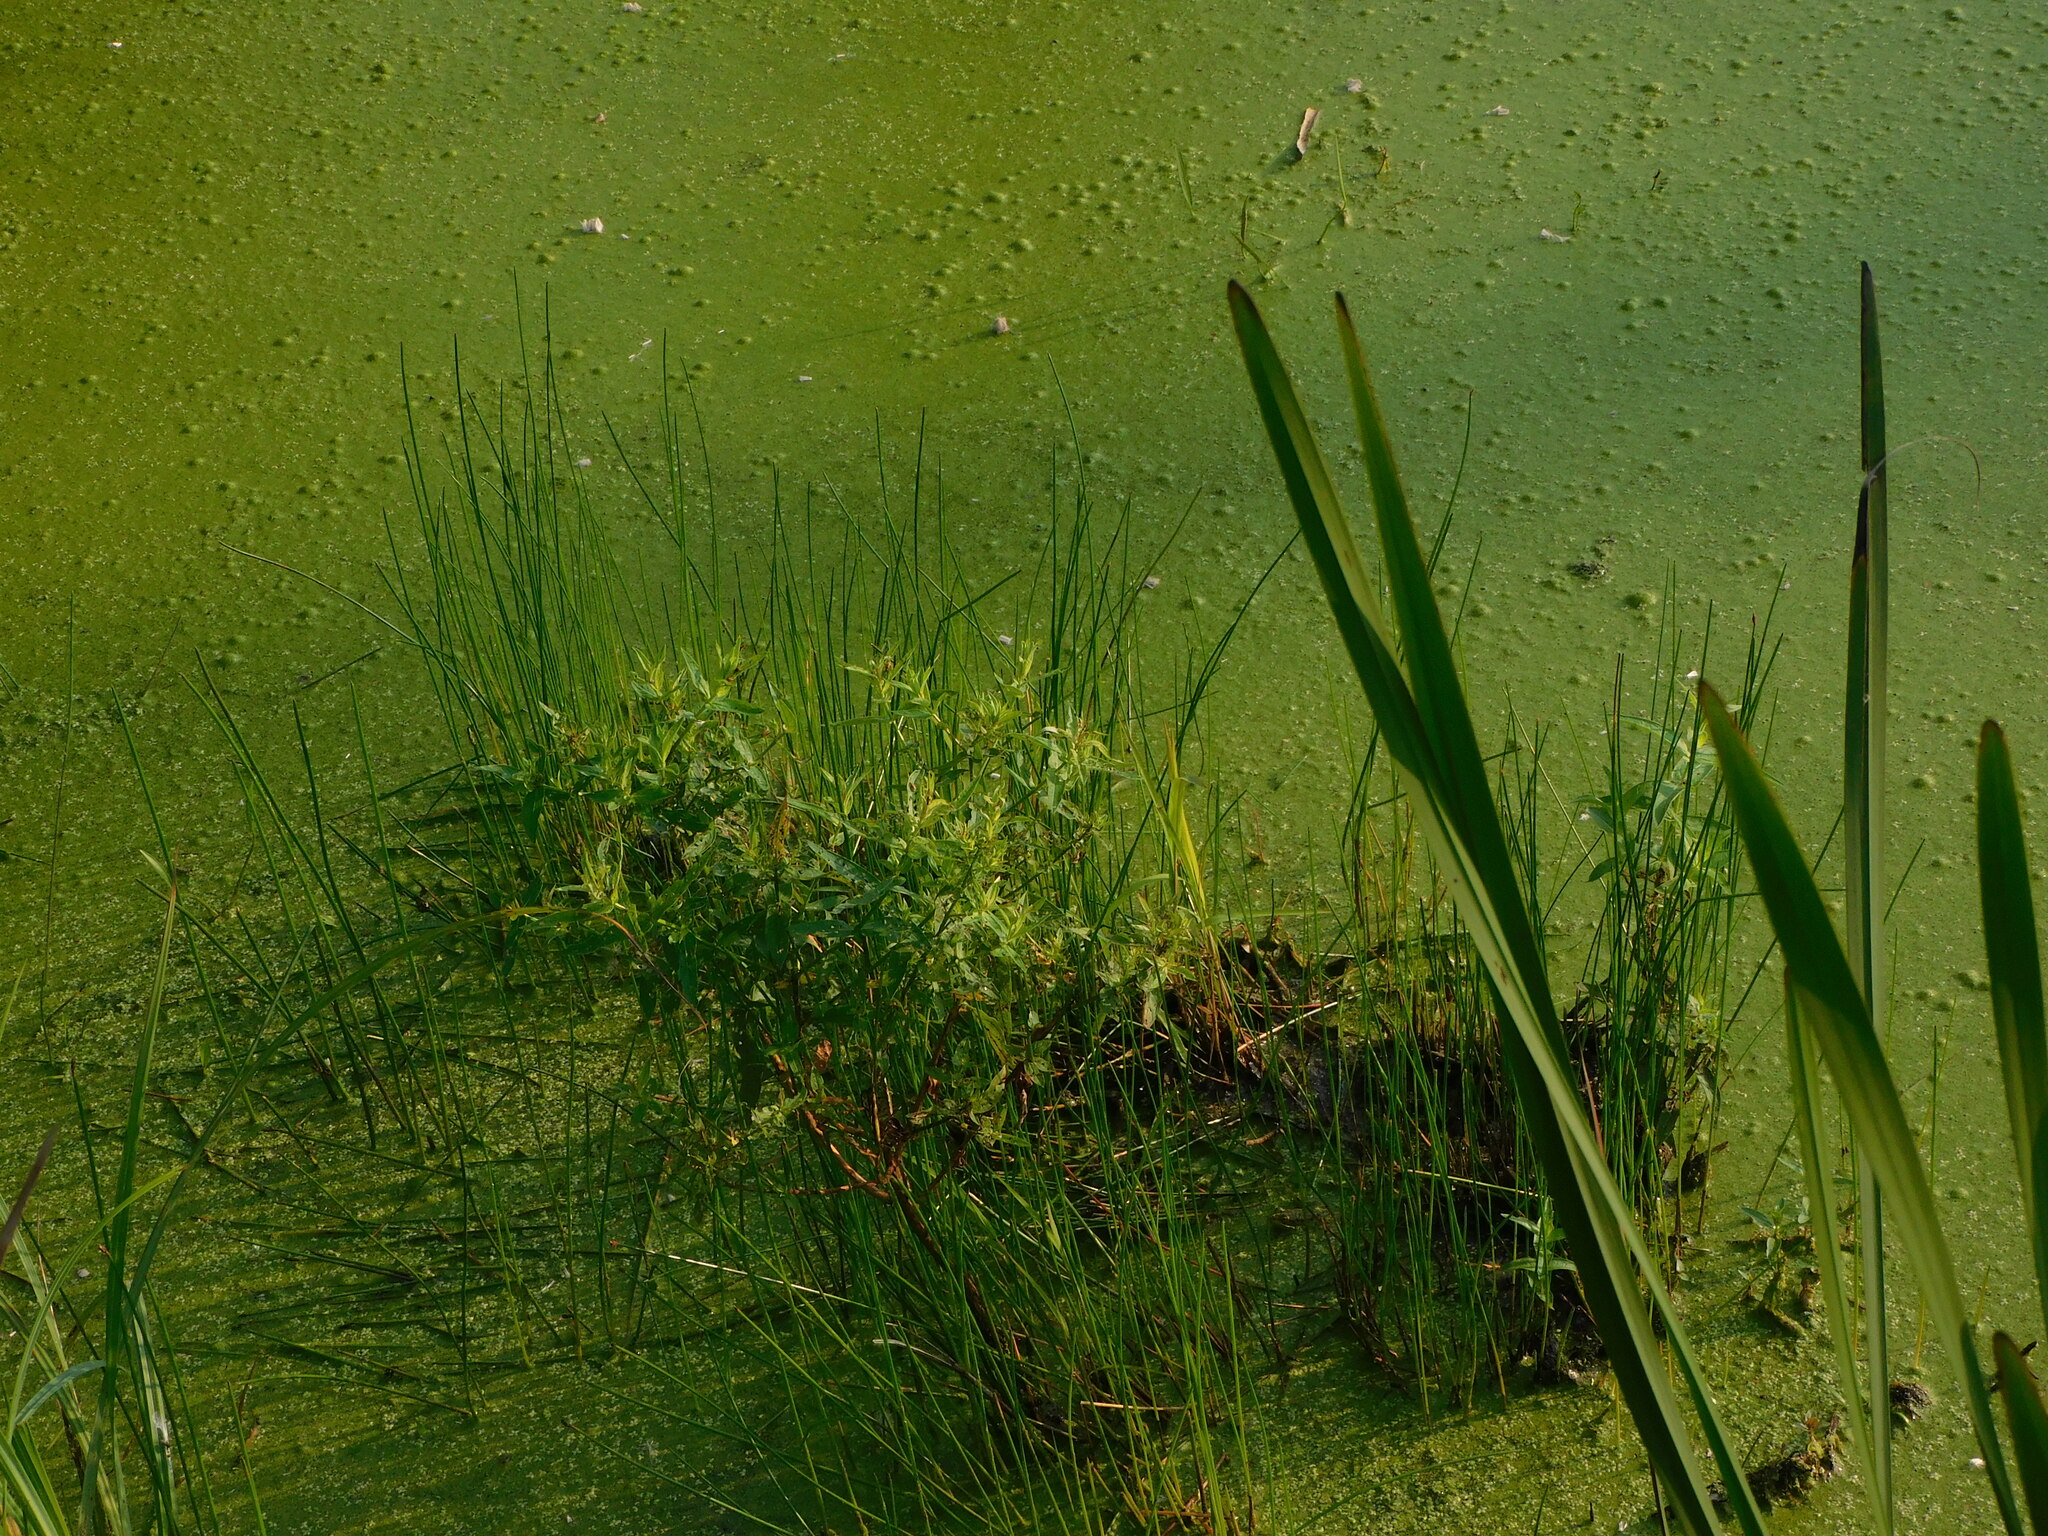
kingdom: Plantae
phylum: Tracheophyta
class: Magnoliopsida
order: Myrtales
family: Lythraceae
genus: Lythrum
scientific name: Lythrum salicaria
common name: Purple loosestrife
